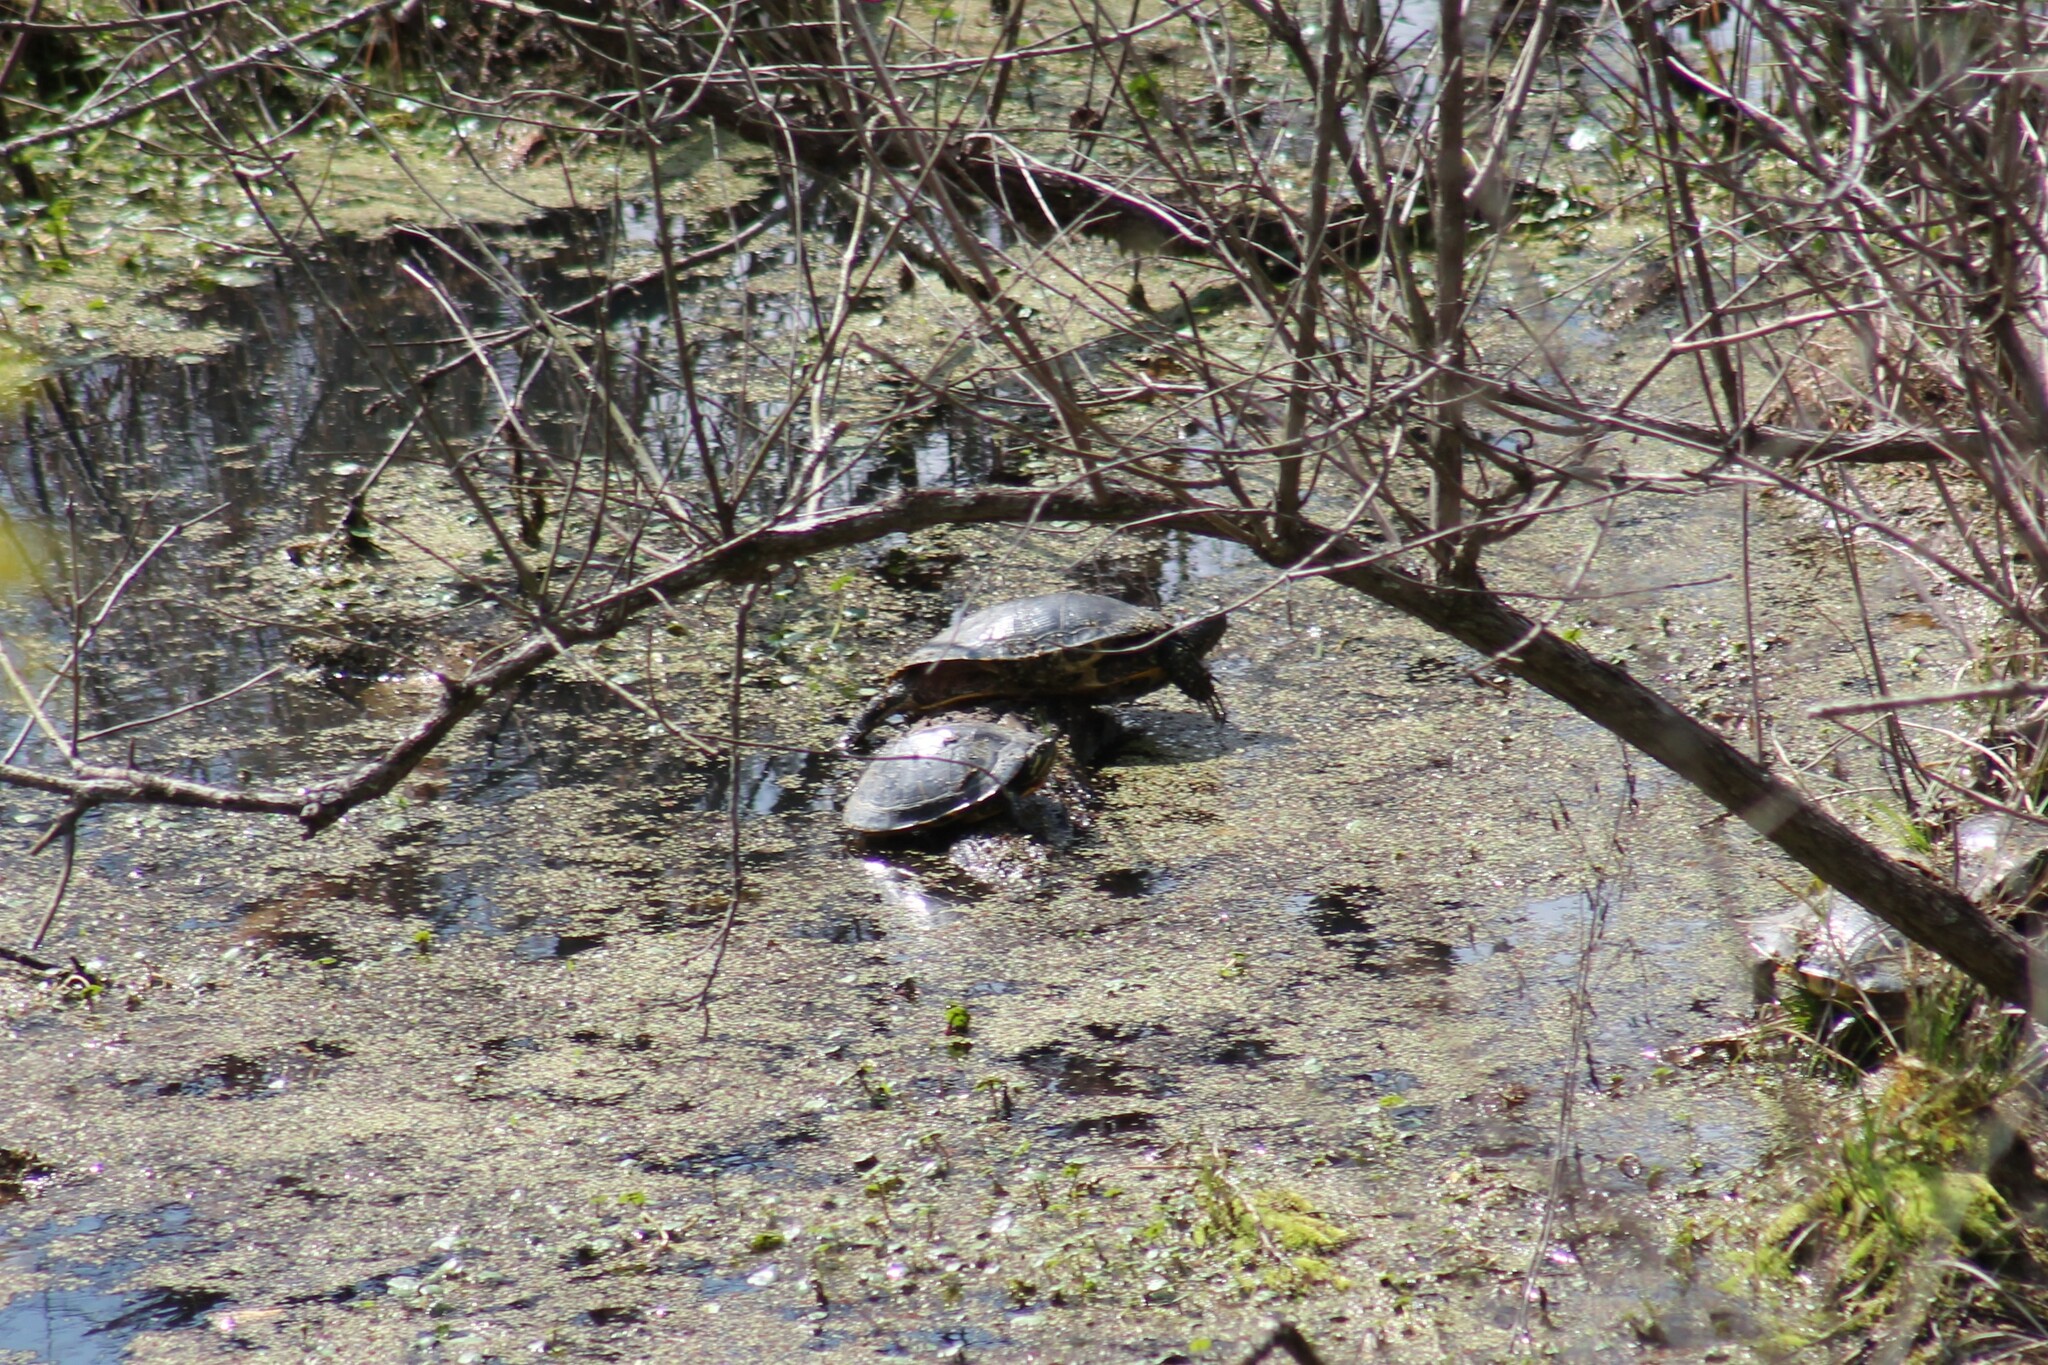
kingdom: Animalia
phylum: Chordata
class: Testudines
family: Emydidae
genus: Trachemys
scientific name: Trachemys scripta
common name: Slider
